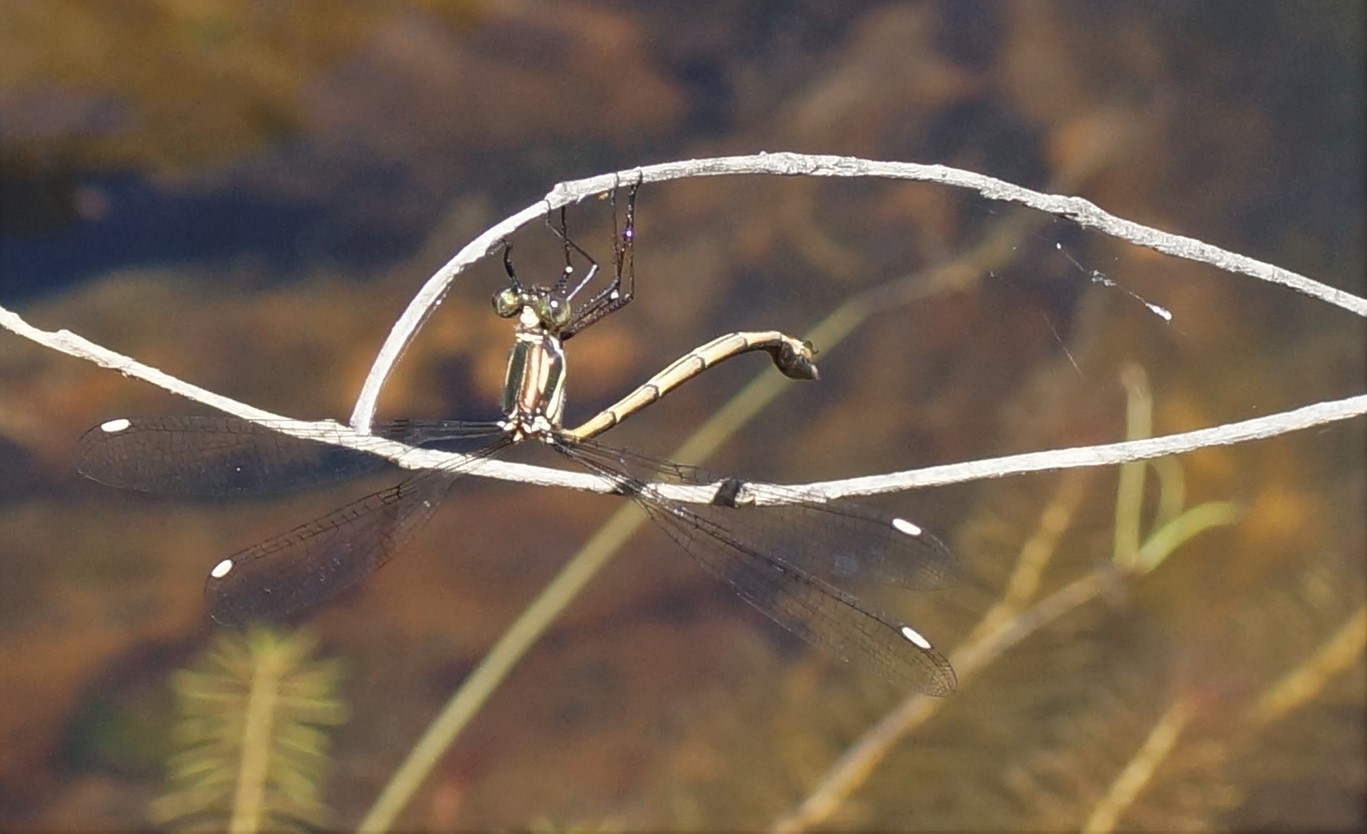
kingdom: Animalia
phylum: Arthropoda
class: Insecta
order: Odonata
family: Synlestidae
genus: Synlestes
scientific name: Synlestes weyersii
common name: Bronze needle
